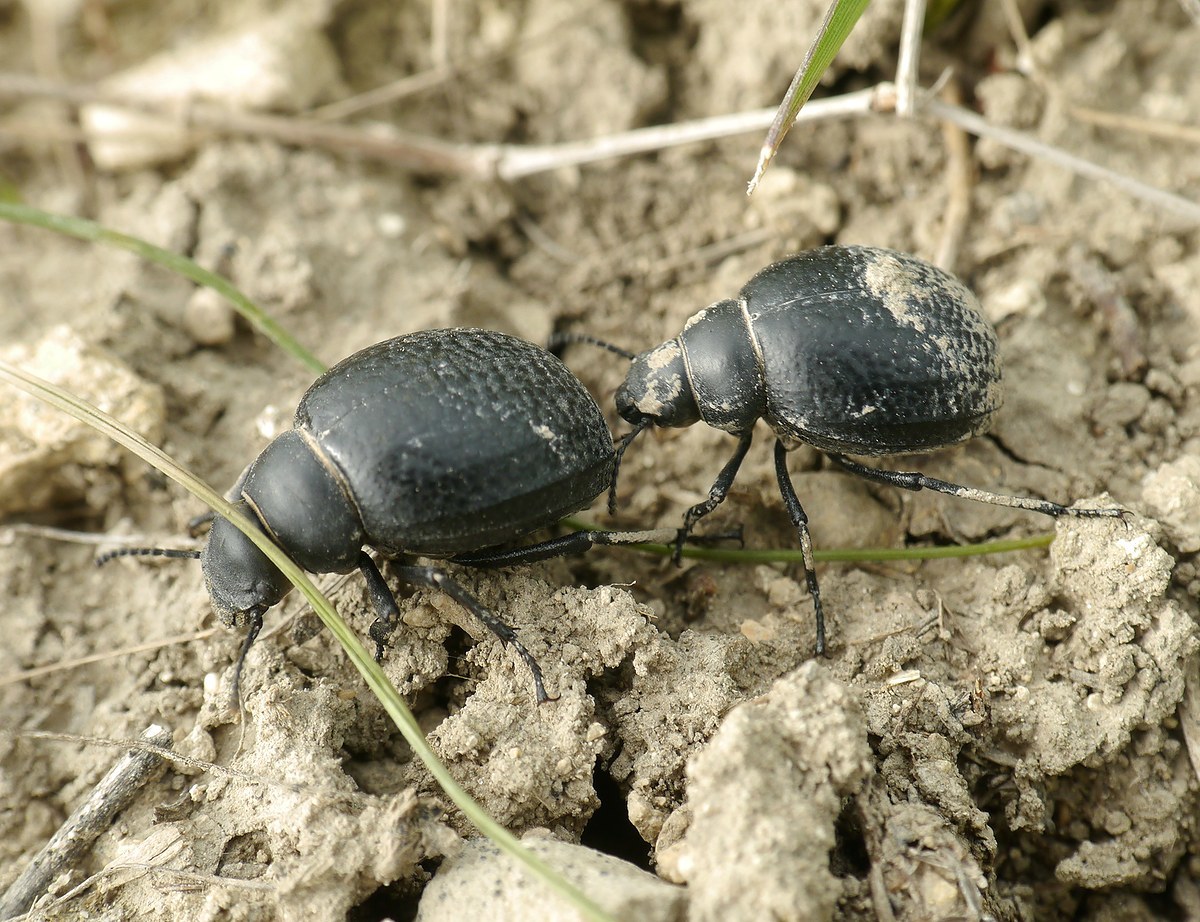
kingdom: Animalia
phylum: Arthropoda
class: Insecta
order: Coleoptera
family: Tenebrionidae
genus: Pimelia
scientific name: Pimelia subglobosa
